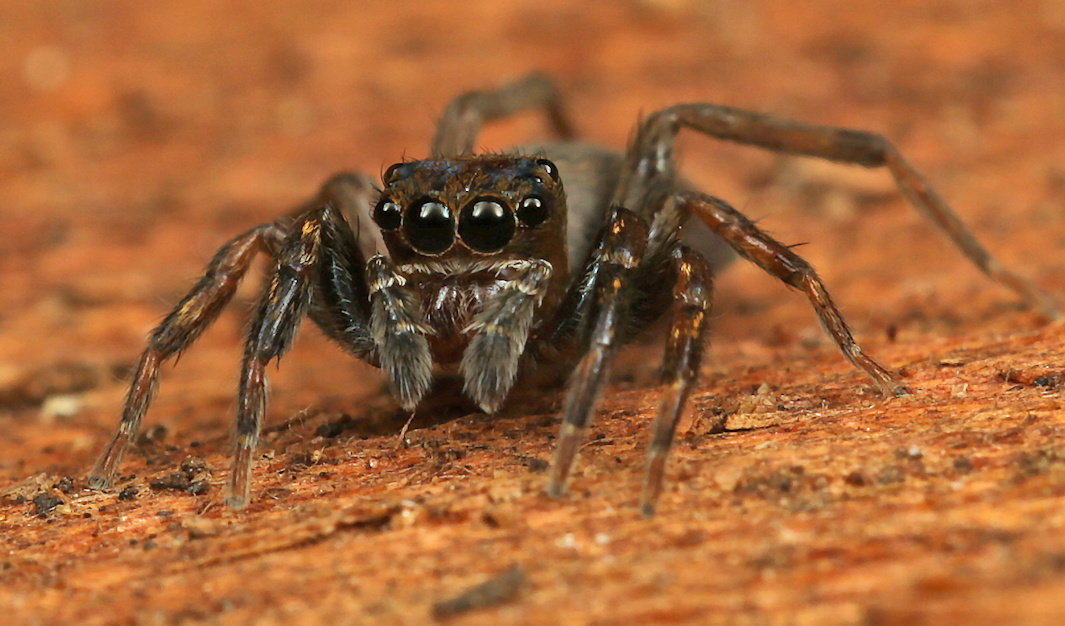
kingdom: Animalia
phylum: Arthropoda
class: Arachnida
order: Araneae
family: Salticidae
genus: Cyrba
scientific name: Cyrba lineata
